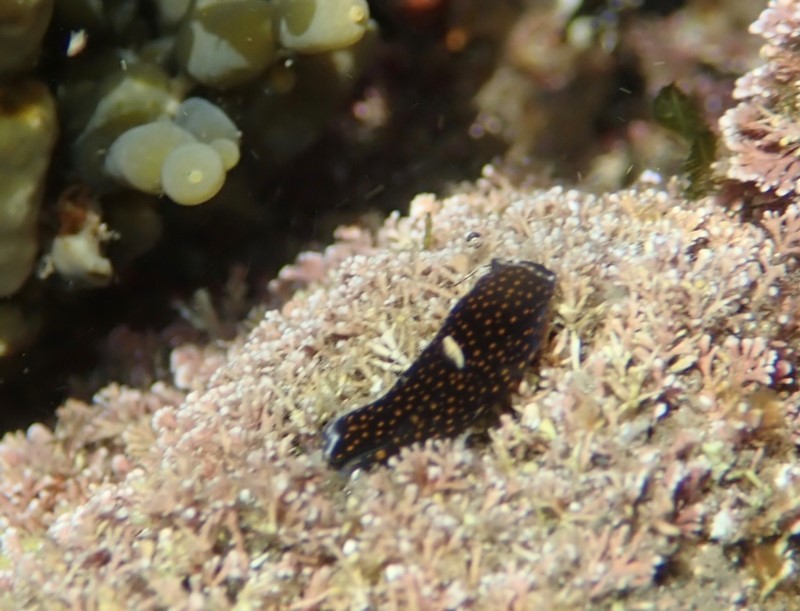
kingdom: Animalia
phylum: Mollusca
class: Gastropoda
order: Cephalaspidea
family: Aglajidae
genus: Mariaglaja
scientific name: Mariaglaja tsurugensis
